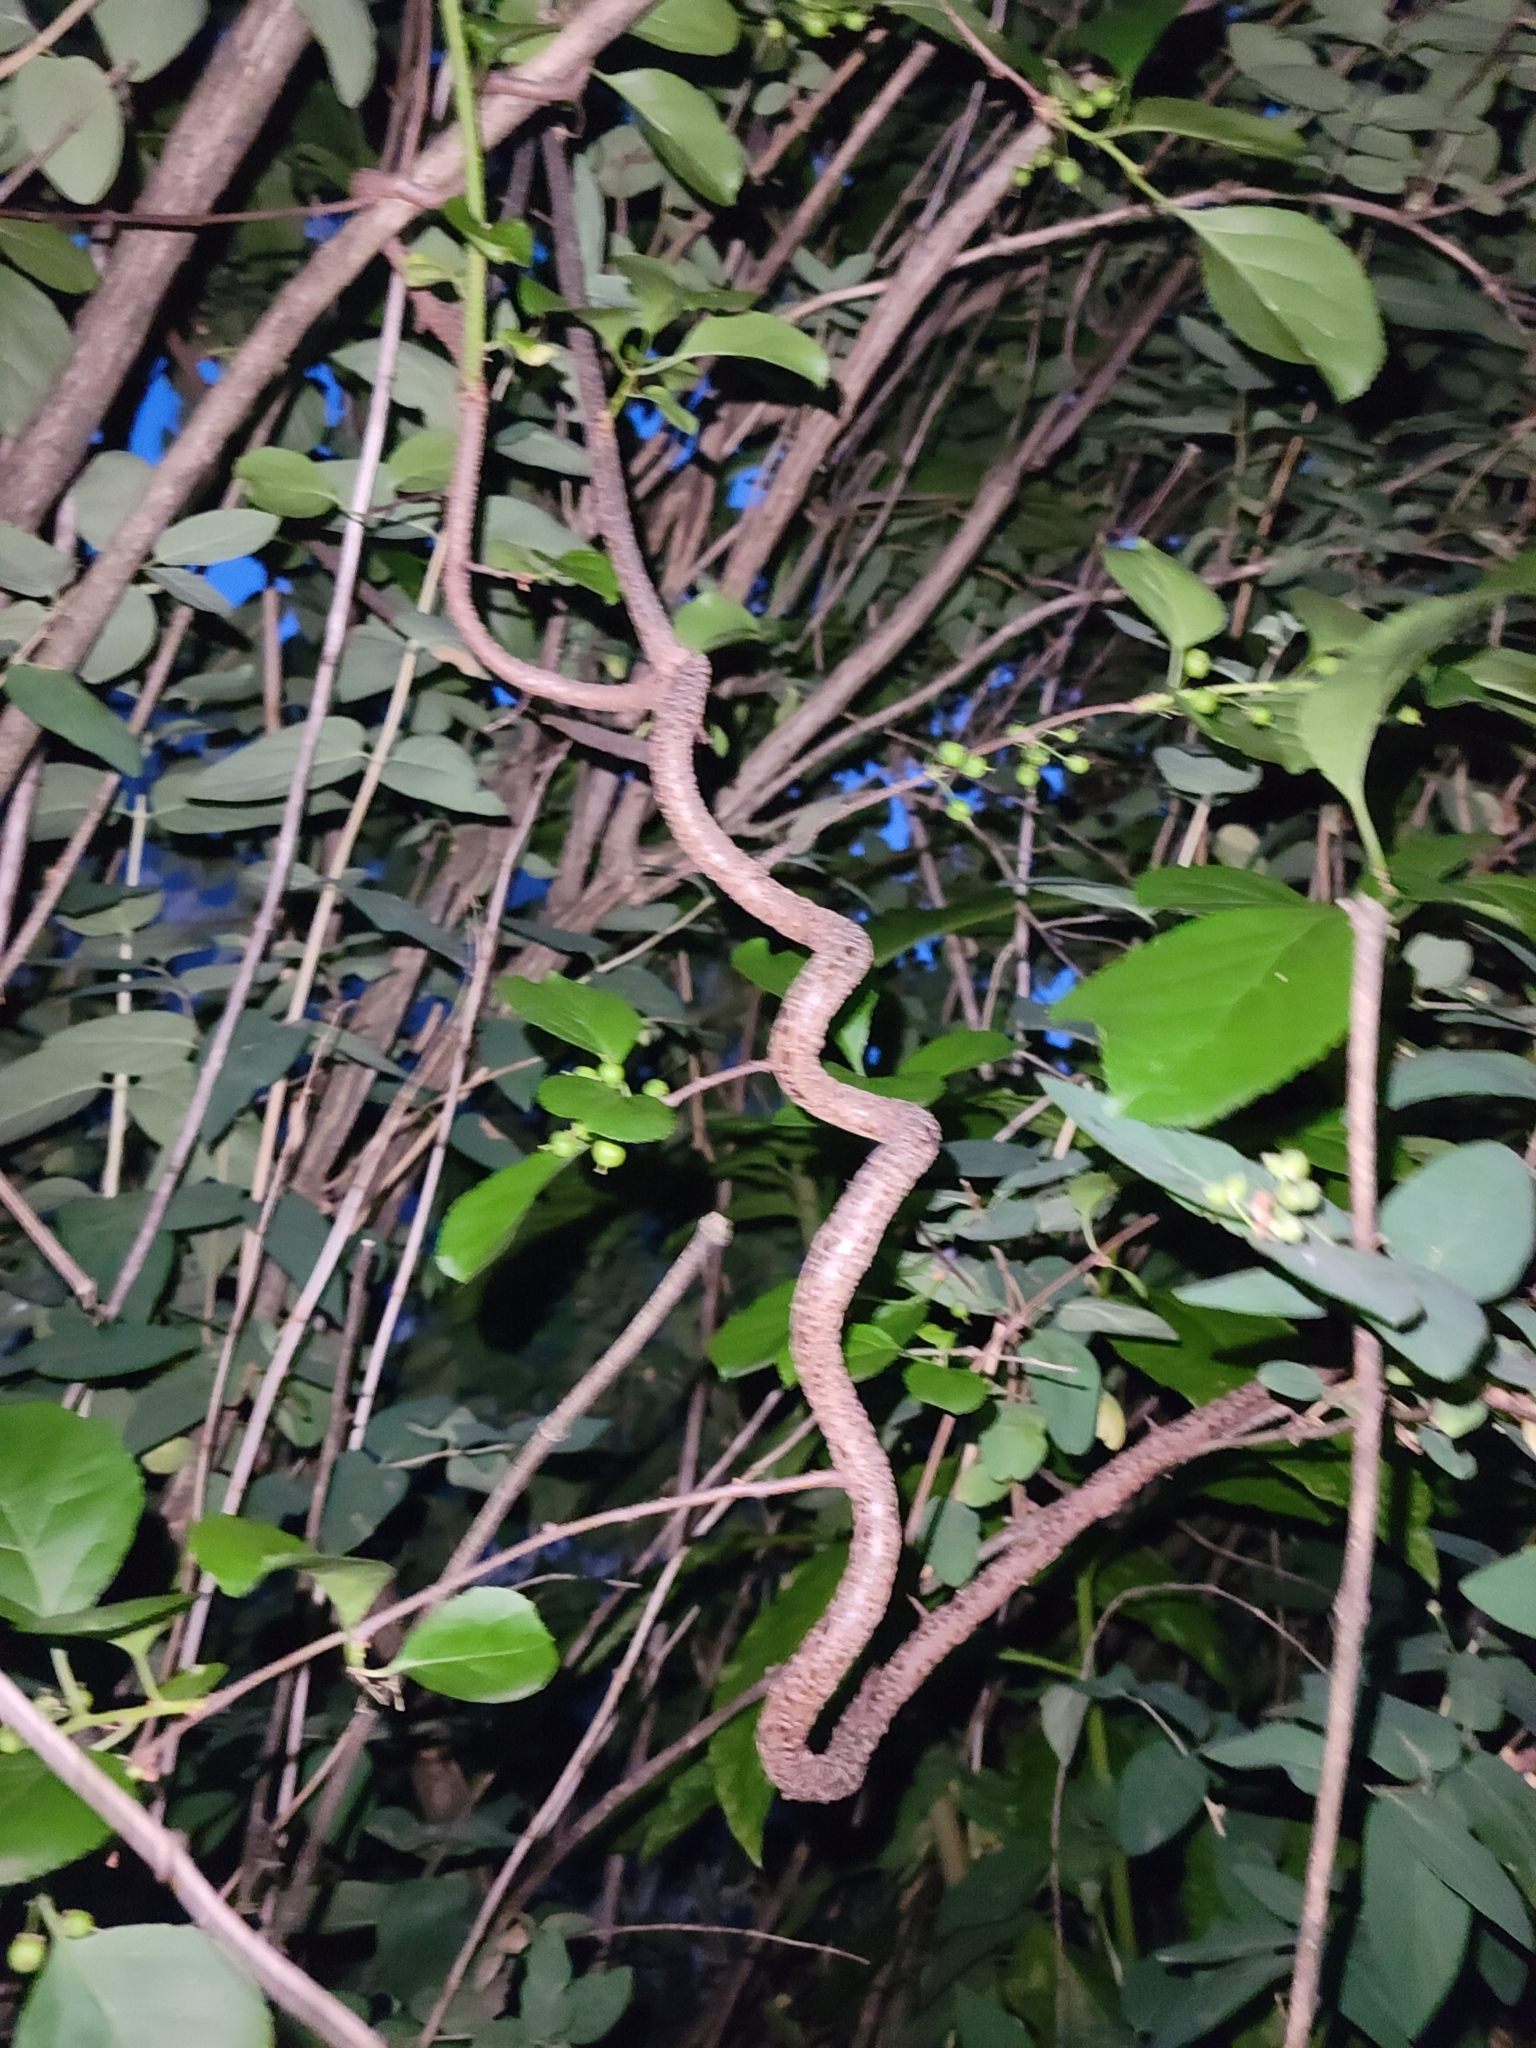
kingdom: Plantae
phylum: Tracheophyta
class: Magnoliopsida
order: Celastrales
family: Celastraceae
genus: Celastrus
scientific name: Celastrus orbiculatus
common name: Oriental bittersweet
